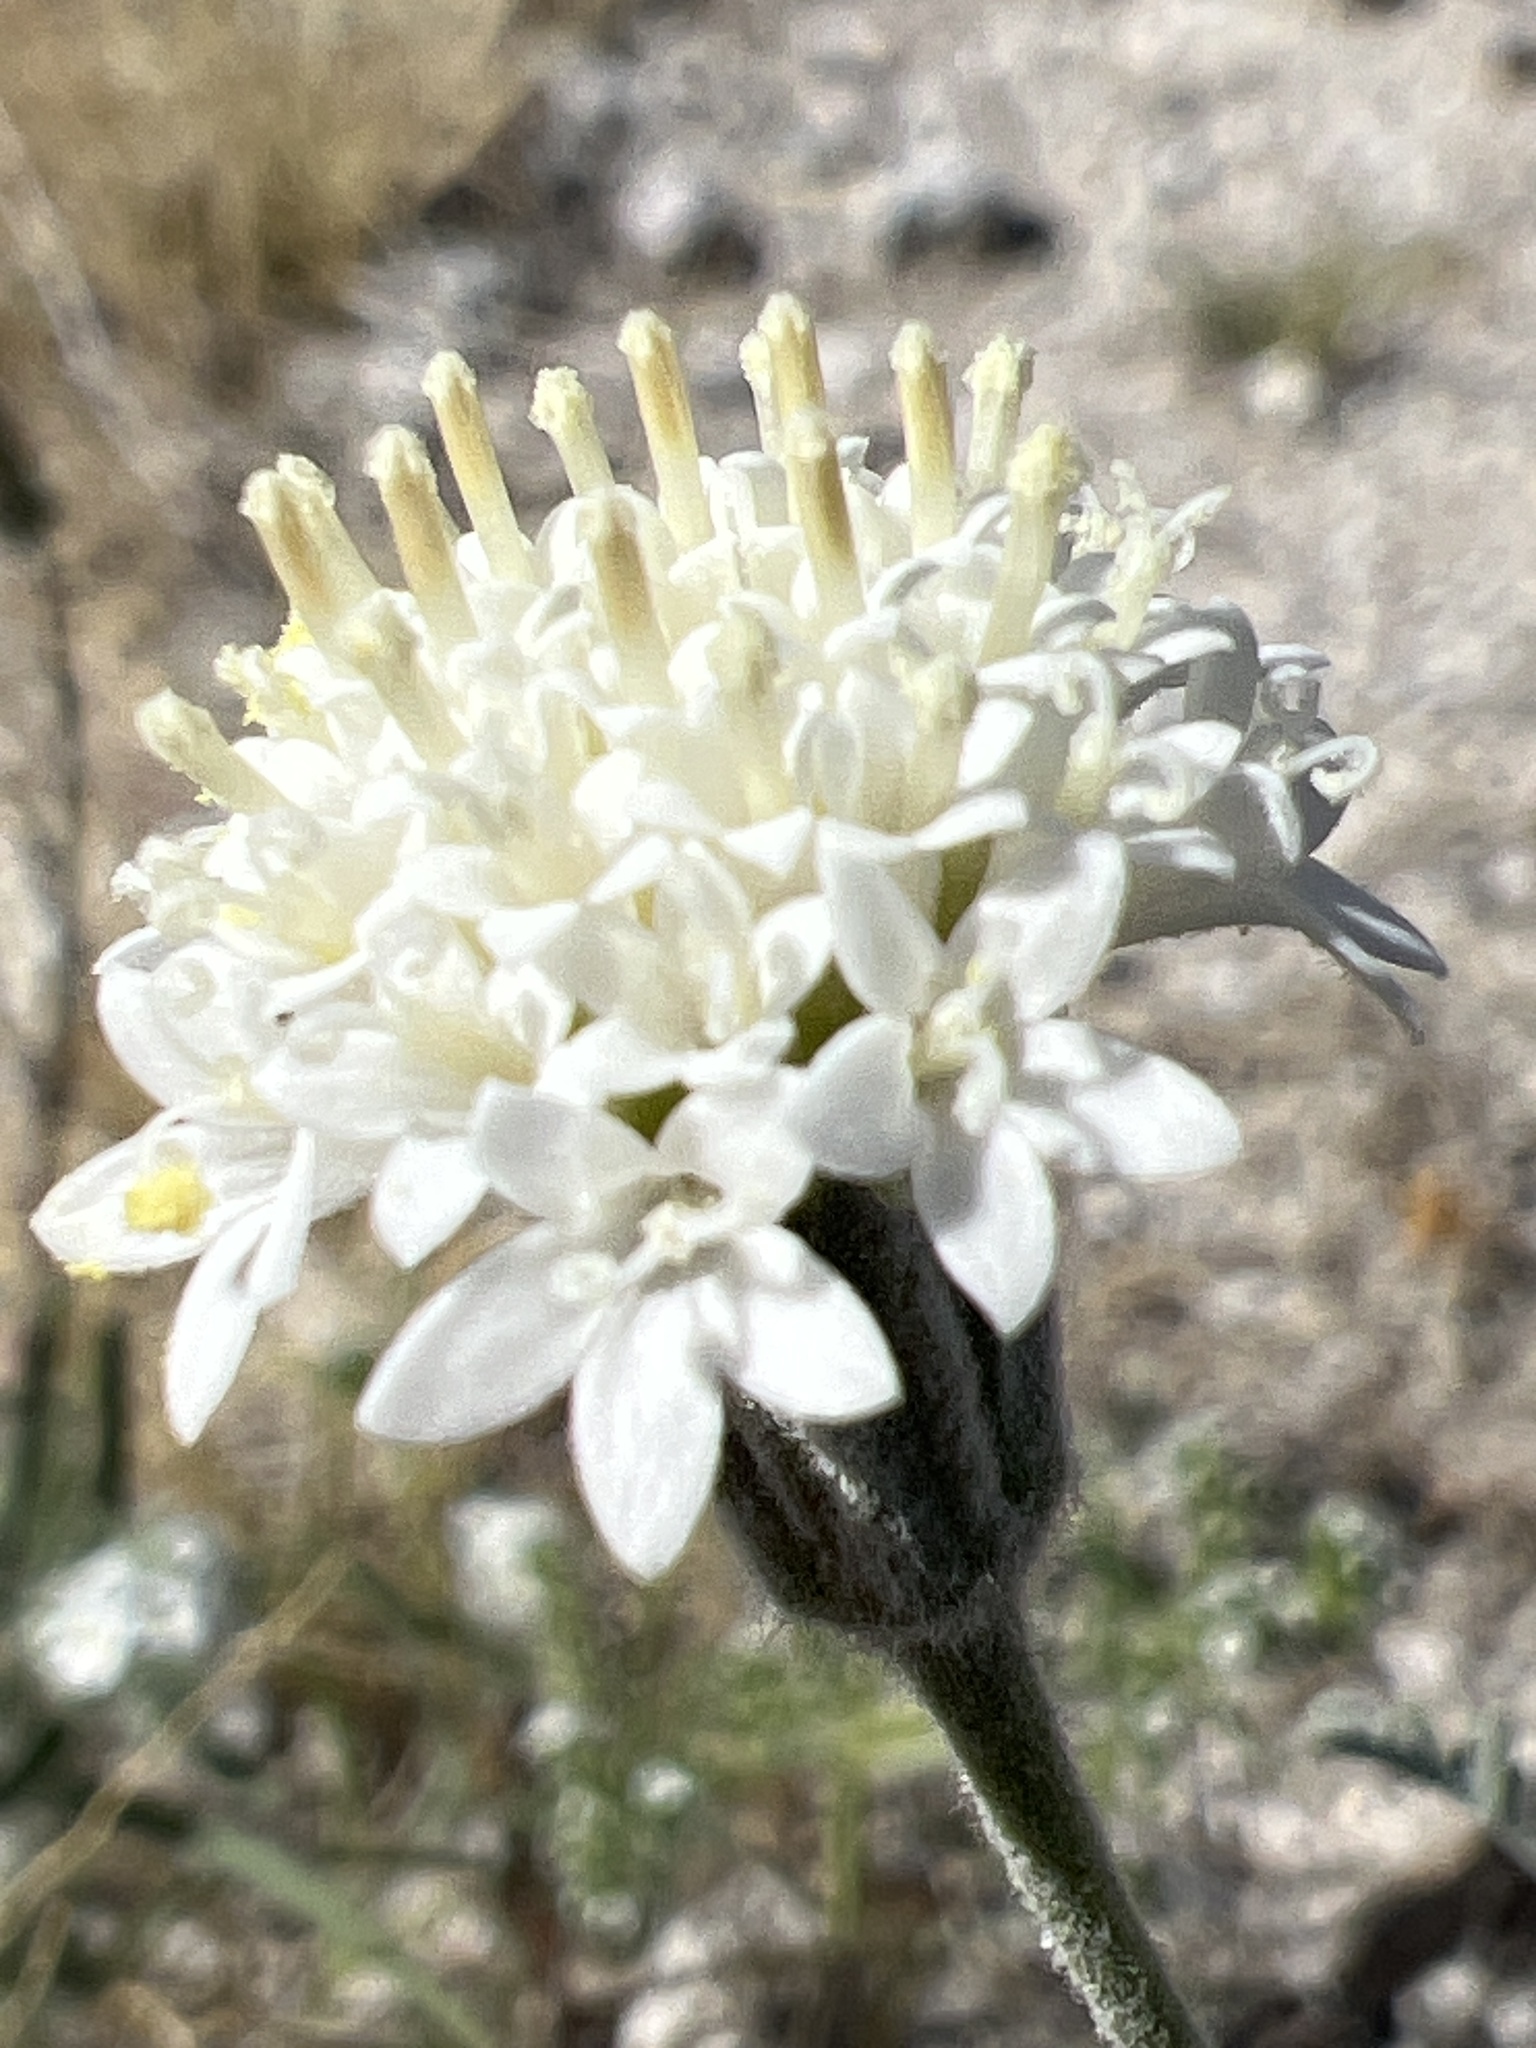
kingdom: Plantae
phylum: Tracheophyta
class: Magnoliopsida
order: Asterales
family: Asteraceae
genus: Chaenactis
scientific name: Chaenactis stevioides
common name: Desert pincushion
